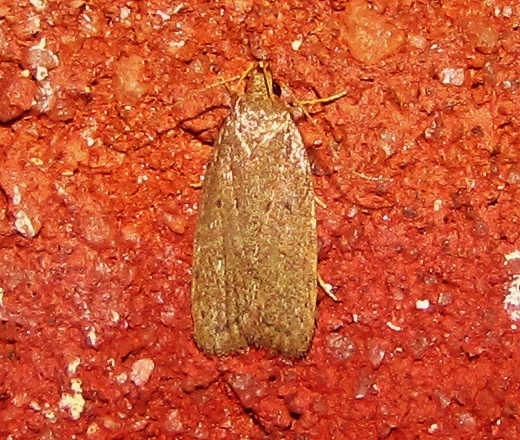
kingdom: Animalia
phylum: Arthropoda
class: Insecta
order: Lepidoptera
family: Autostichidae
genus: Autosticha
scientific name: Autosticha kyotensis
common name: Kyoto moth
